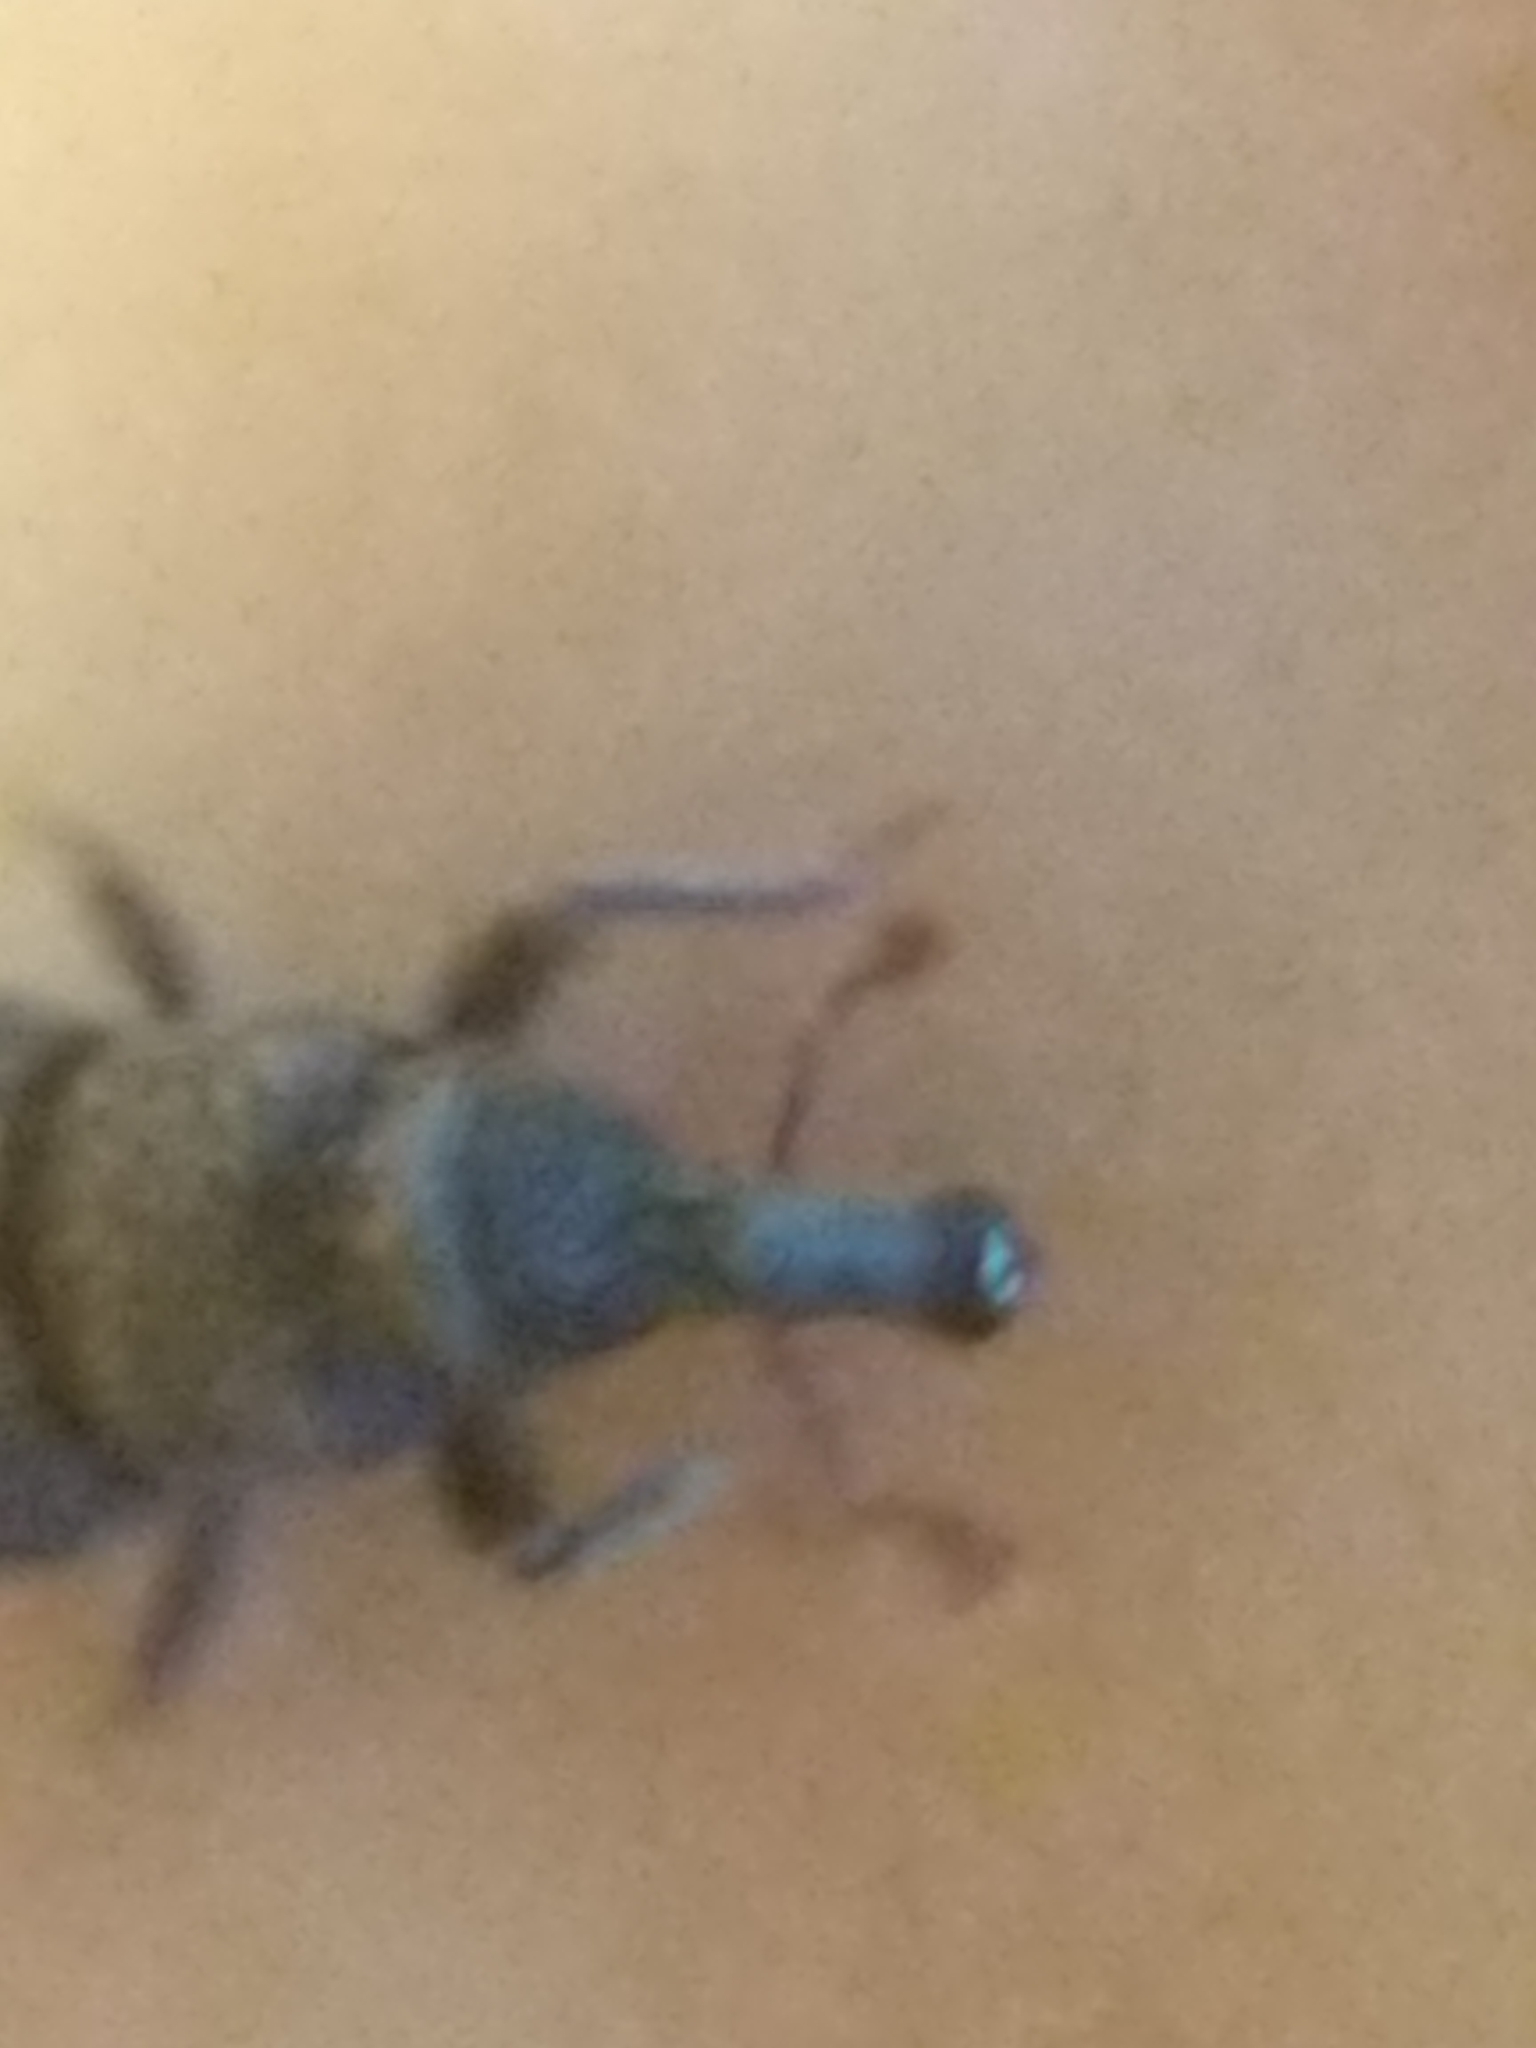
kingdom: Animalia
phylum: Arthropoda
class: Insecta
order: Coleoptera
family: Dryophthoridae
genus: Dryophthorus
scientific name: Dryophthorus americanus
